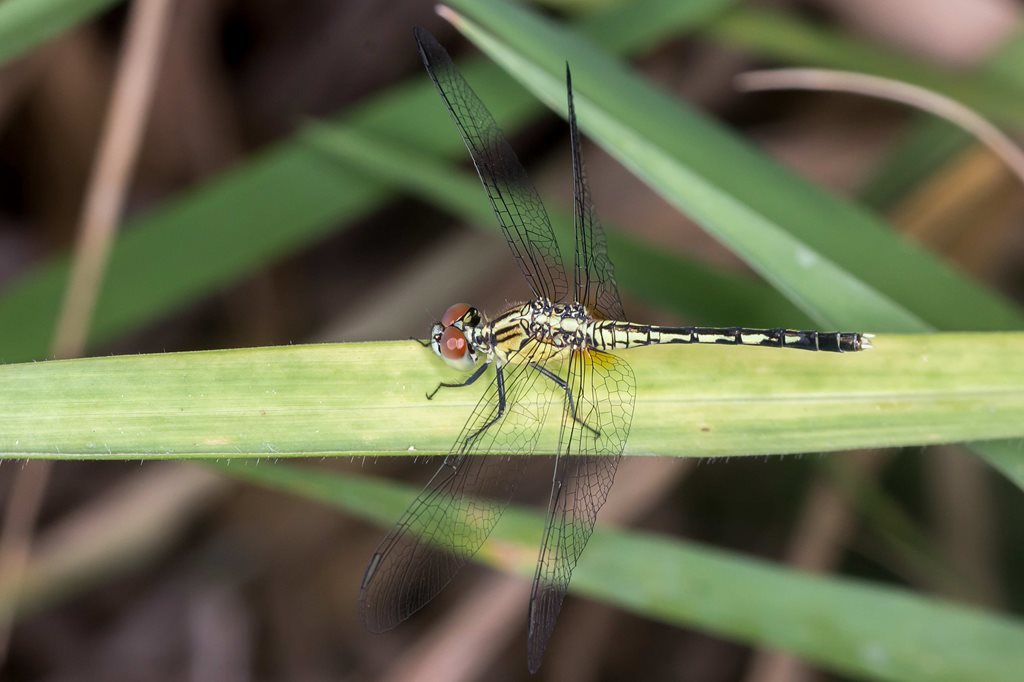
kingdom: Animalia
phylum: Arthropoda
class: Insecta
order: Odonata
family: Libellulidae
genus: Diplacodes
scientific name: Diplacodes trivialis
